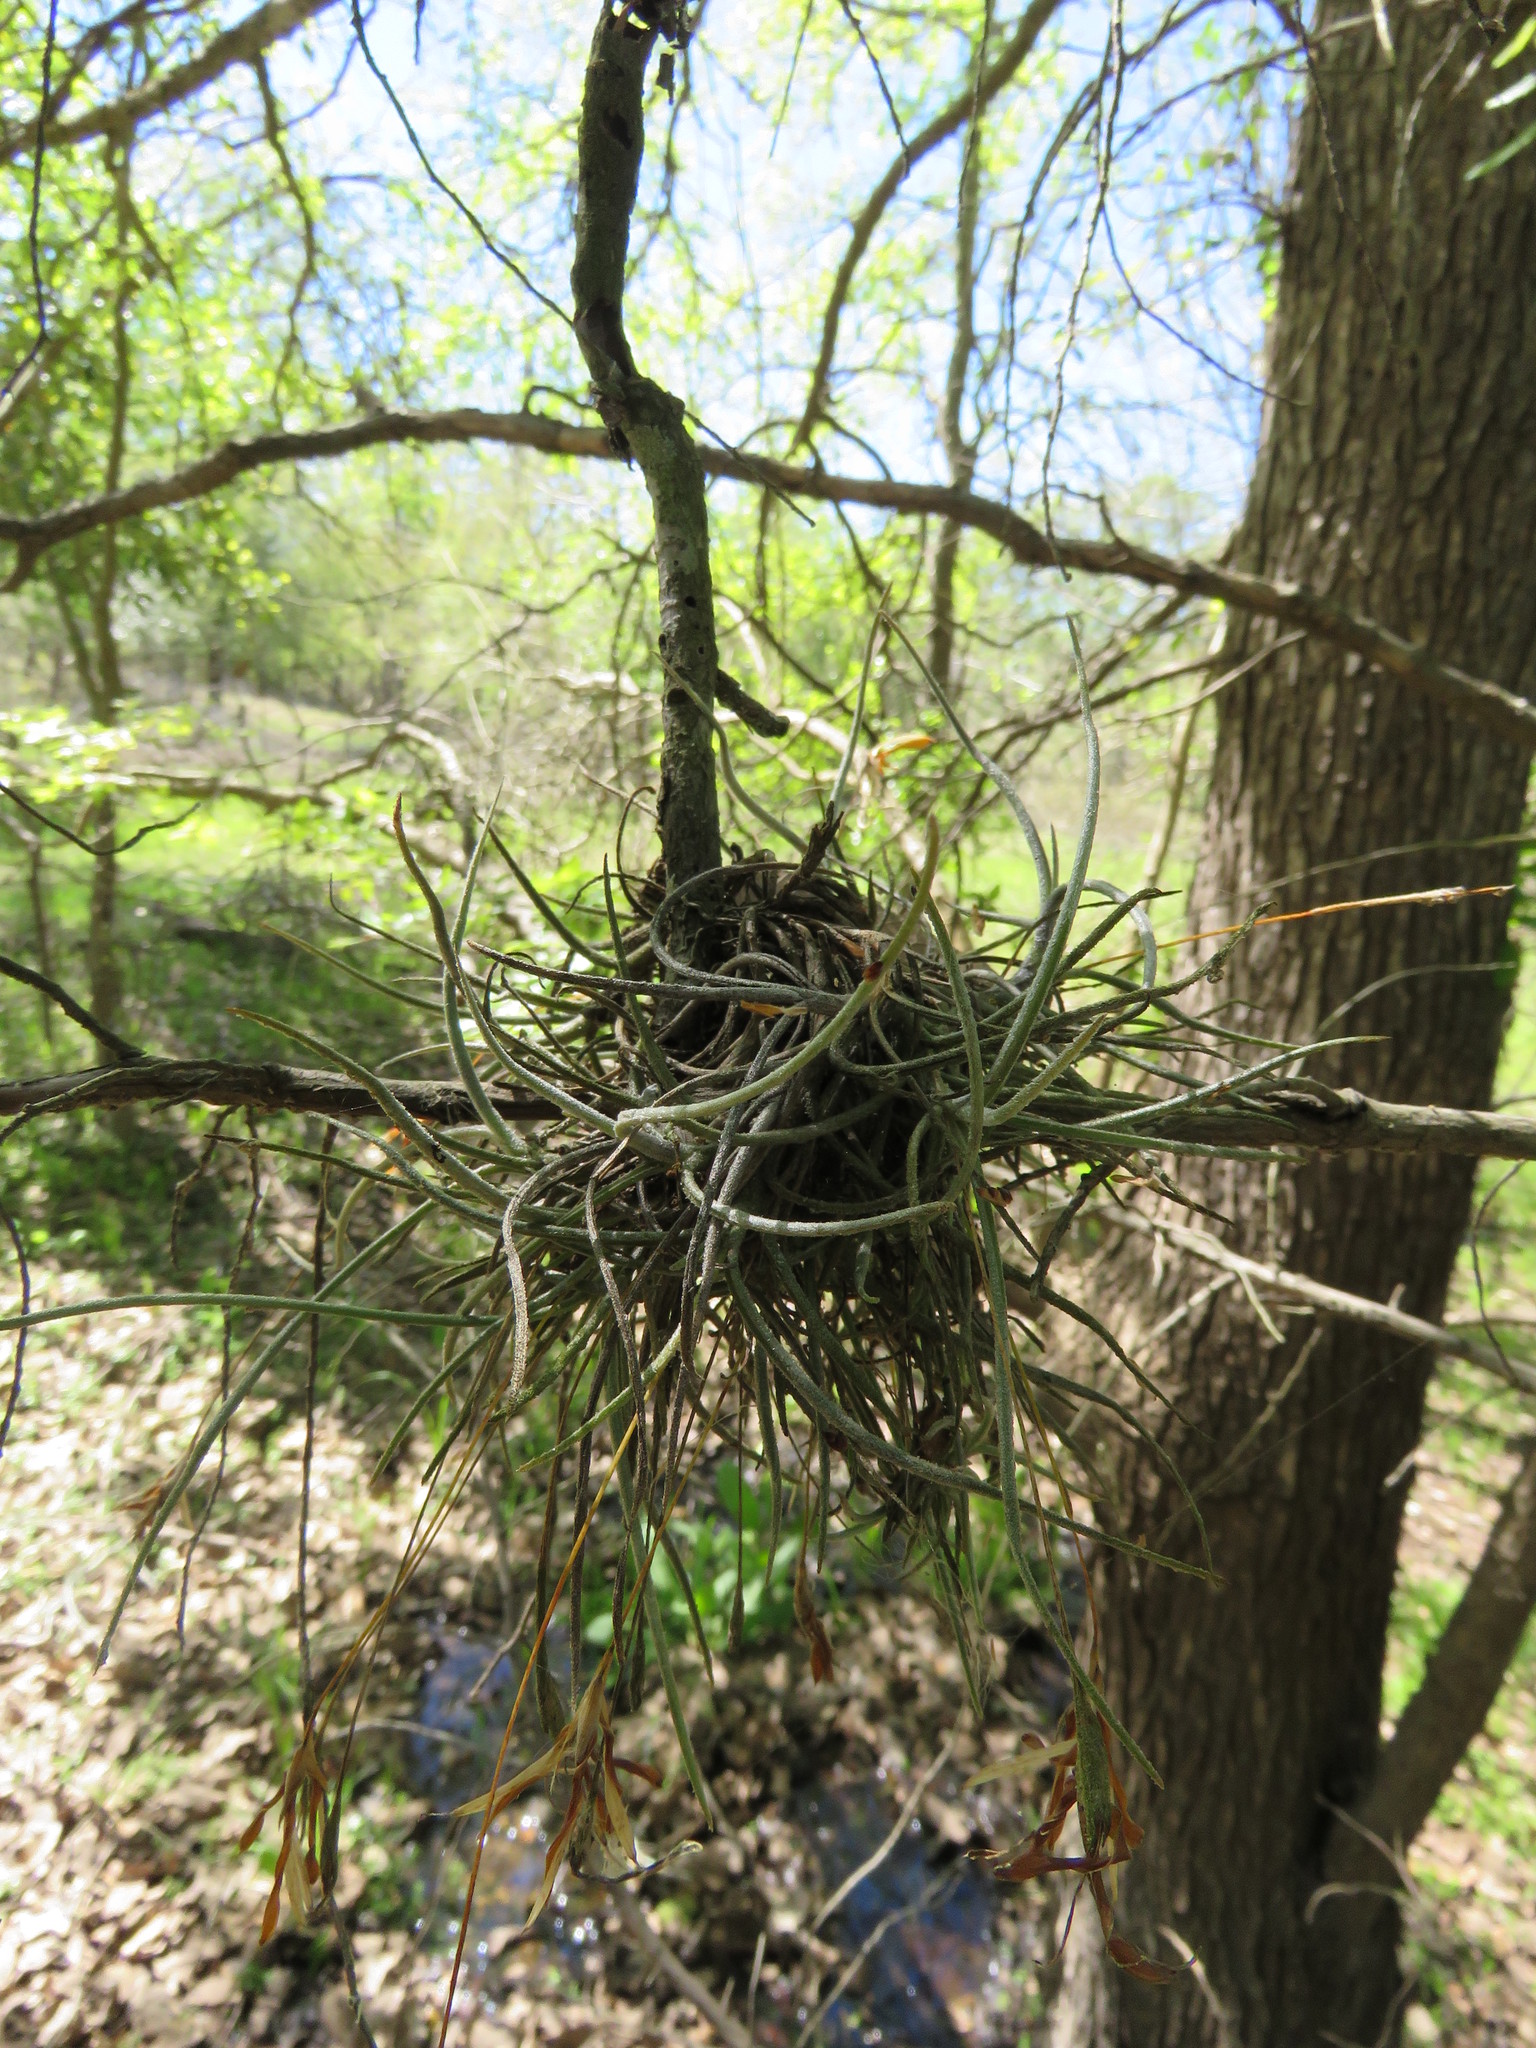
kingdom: Plantae
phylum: Tracheophyta
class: Liliopsida
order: Poales
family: Bromeliaceae
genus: Tillandsia
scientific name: Tillandsia recurvata
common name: Small ballmoss
